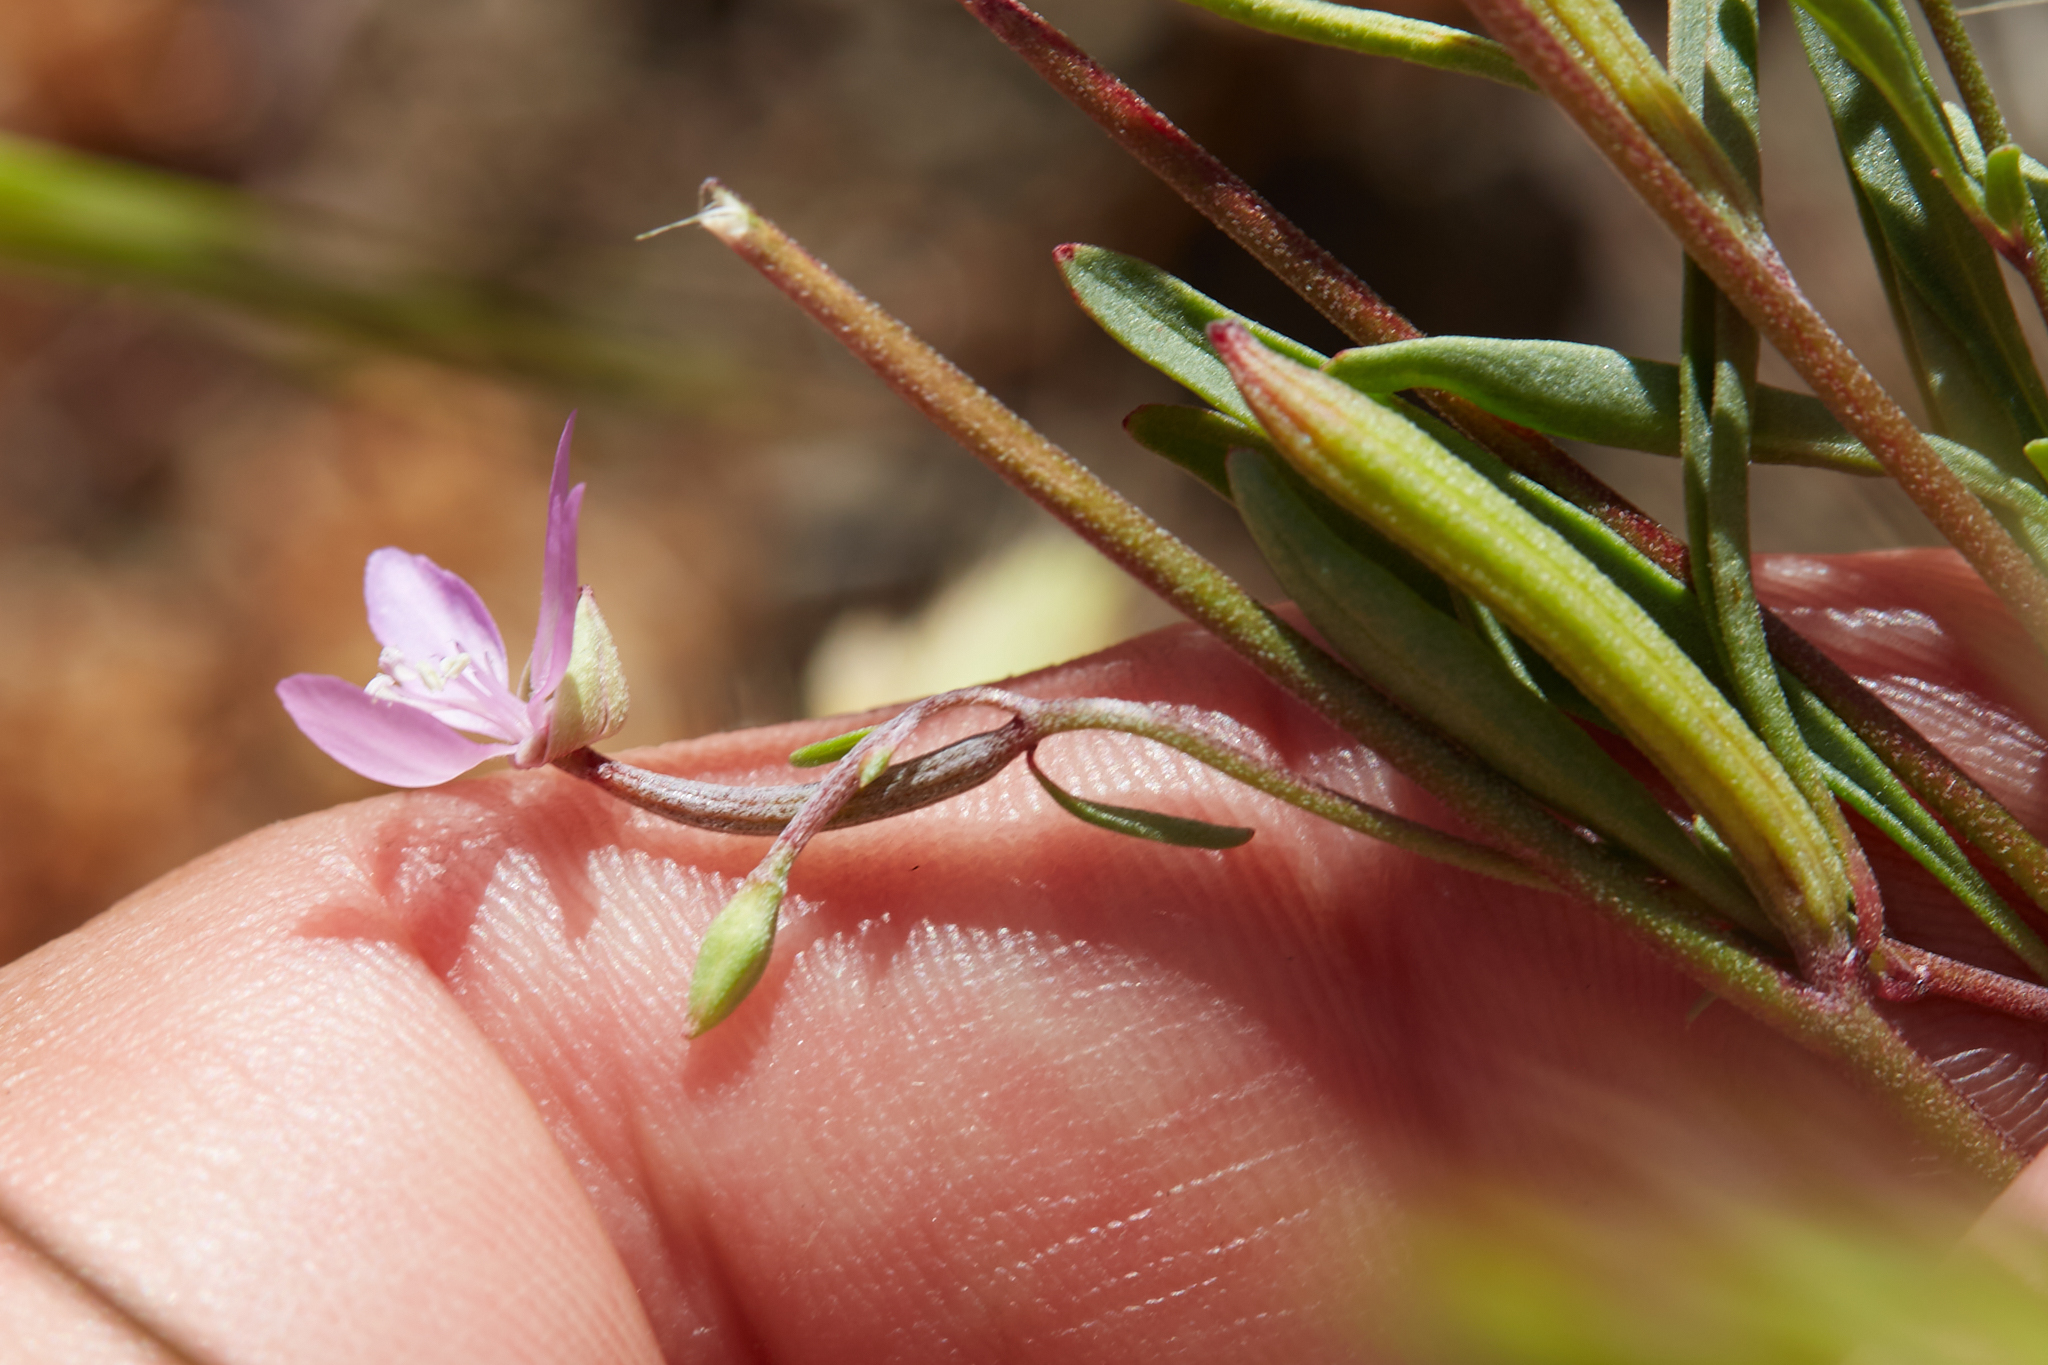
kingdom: Plantae
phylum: Tracheophyta
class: Magnoliopsida
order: Myrtales
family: Onagraceae
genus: Clarkia
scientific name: Clarkia modesta
